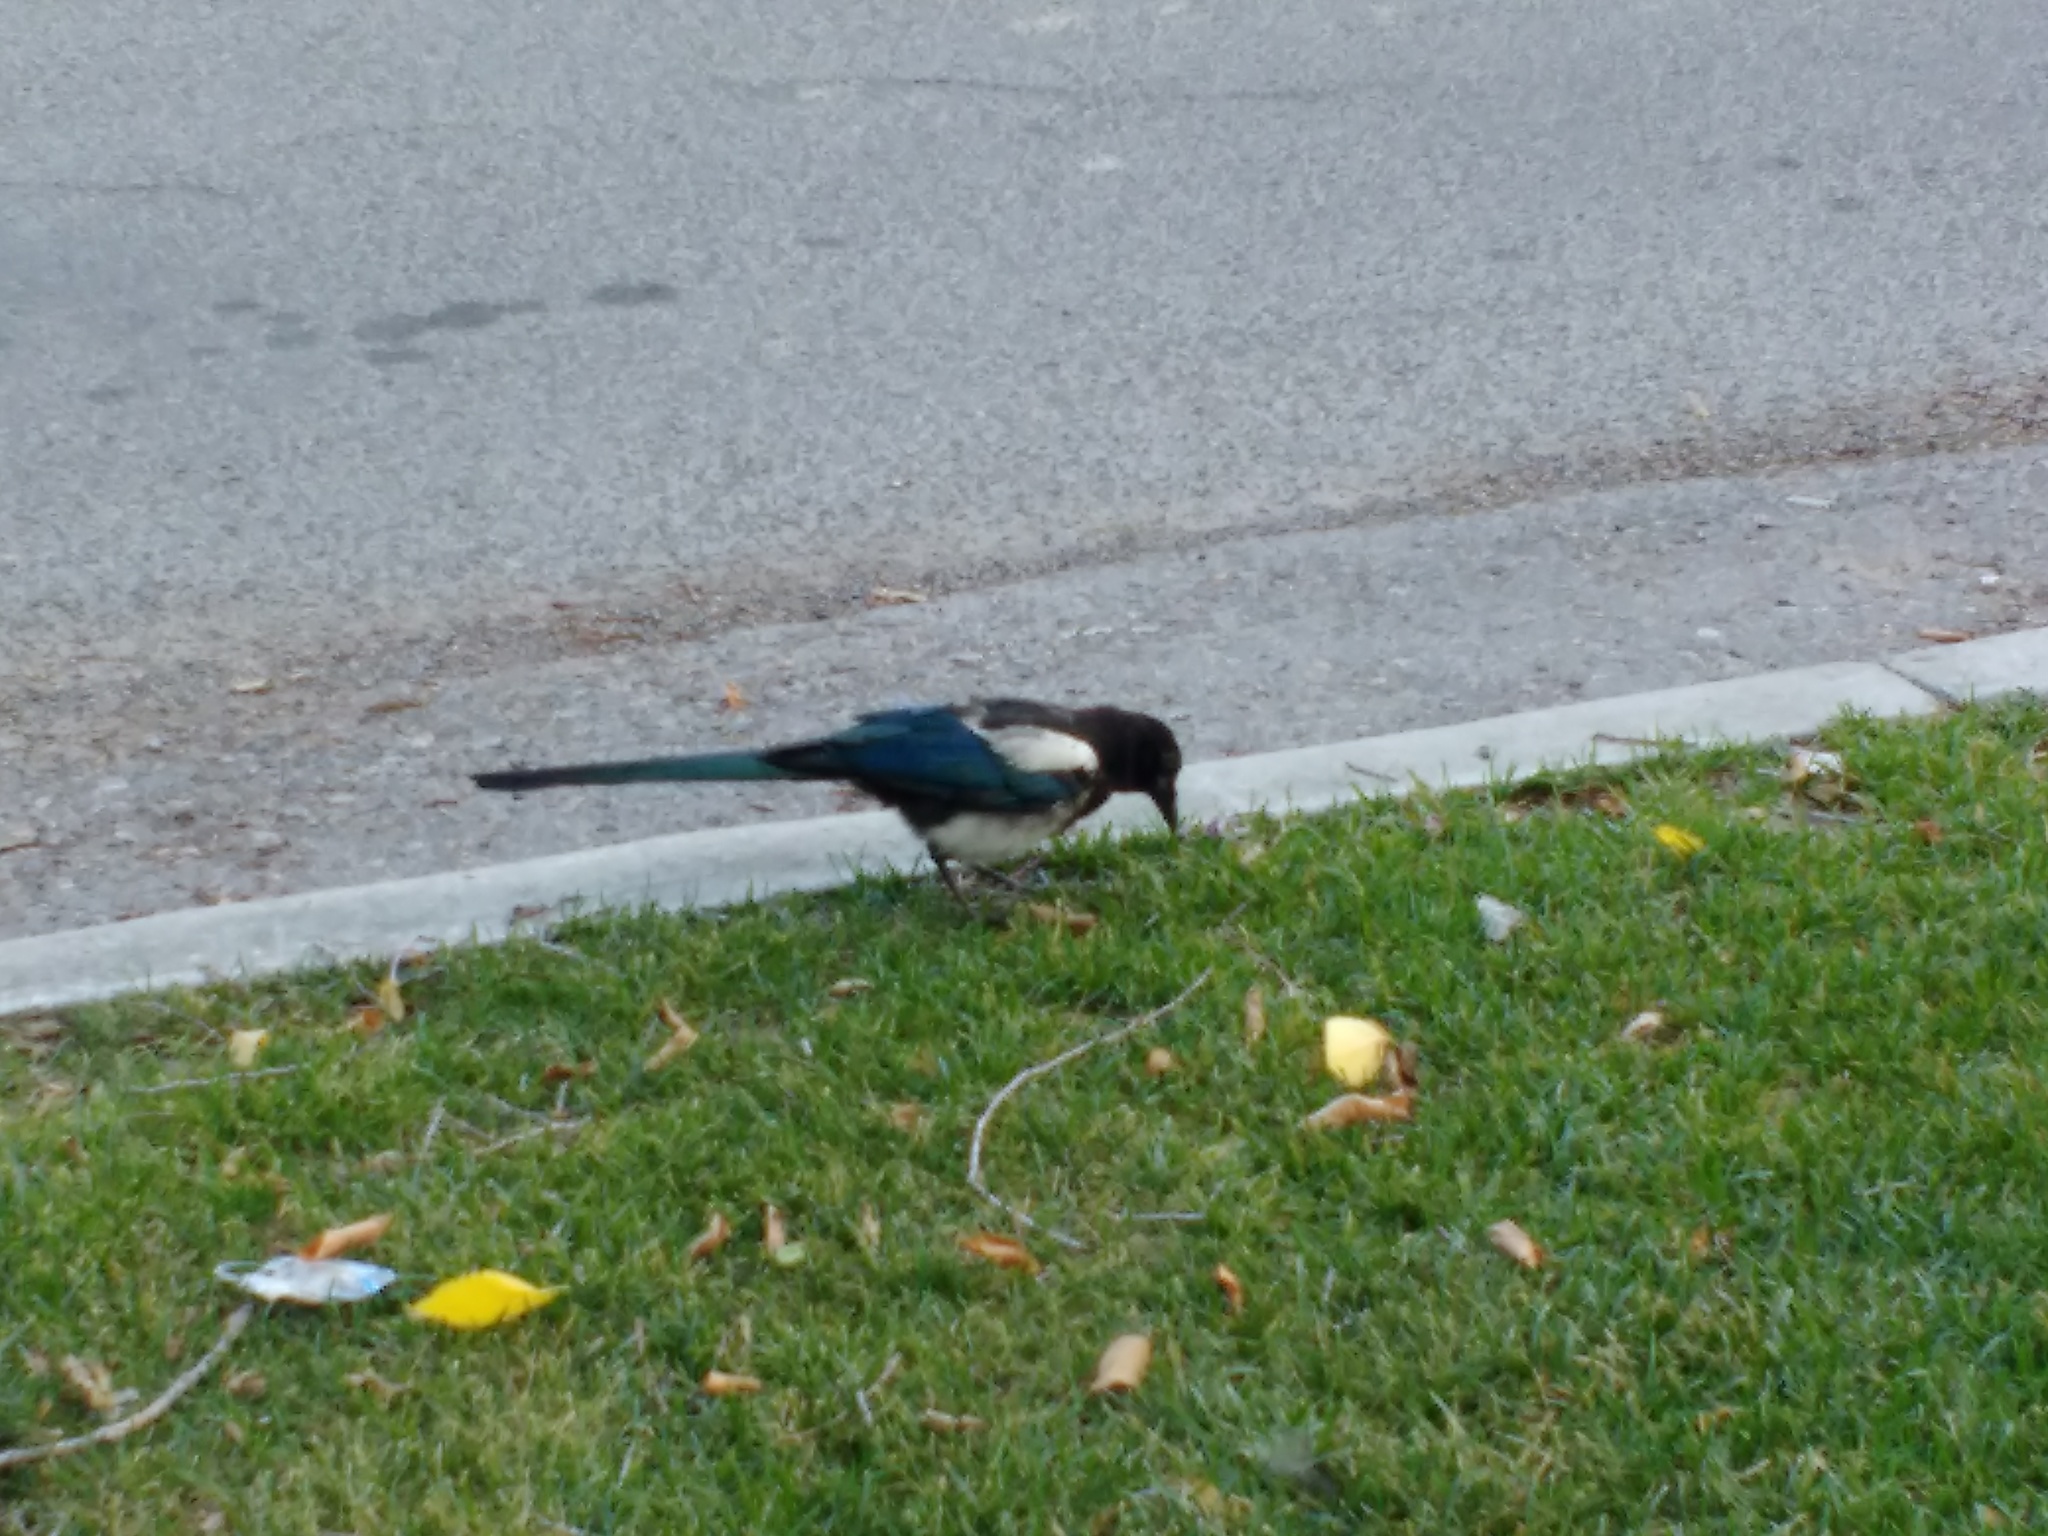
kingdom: Animalia
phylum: Chordata
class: Aves
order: Passeriformes
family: Corvidae
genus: Pica
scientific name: Pica hudsonia
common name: Black-billed magpie
